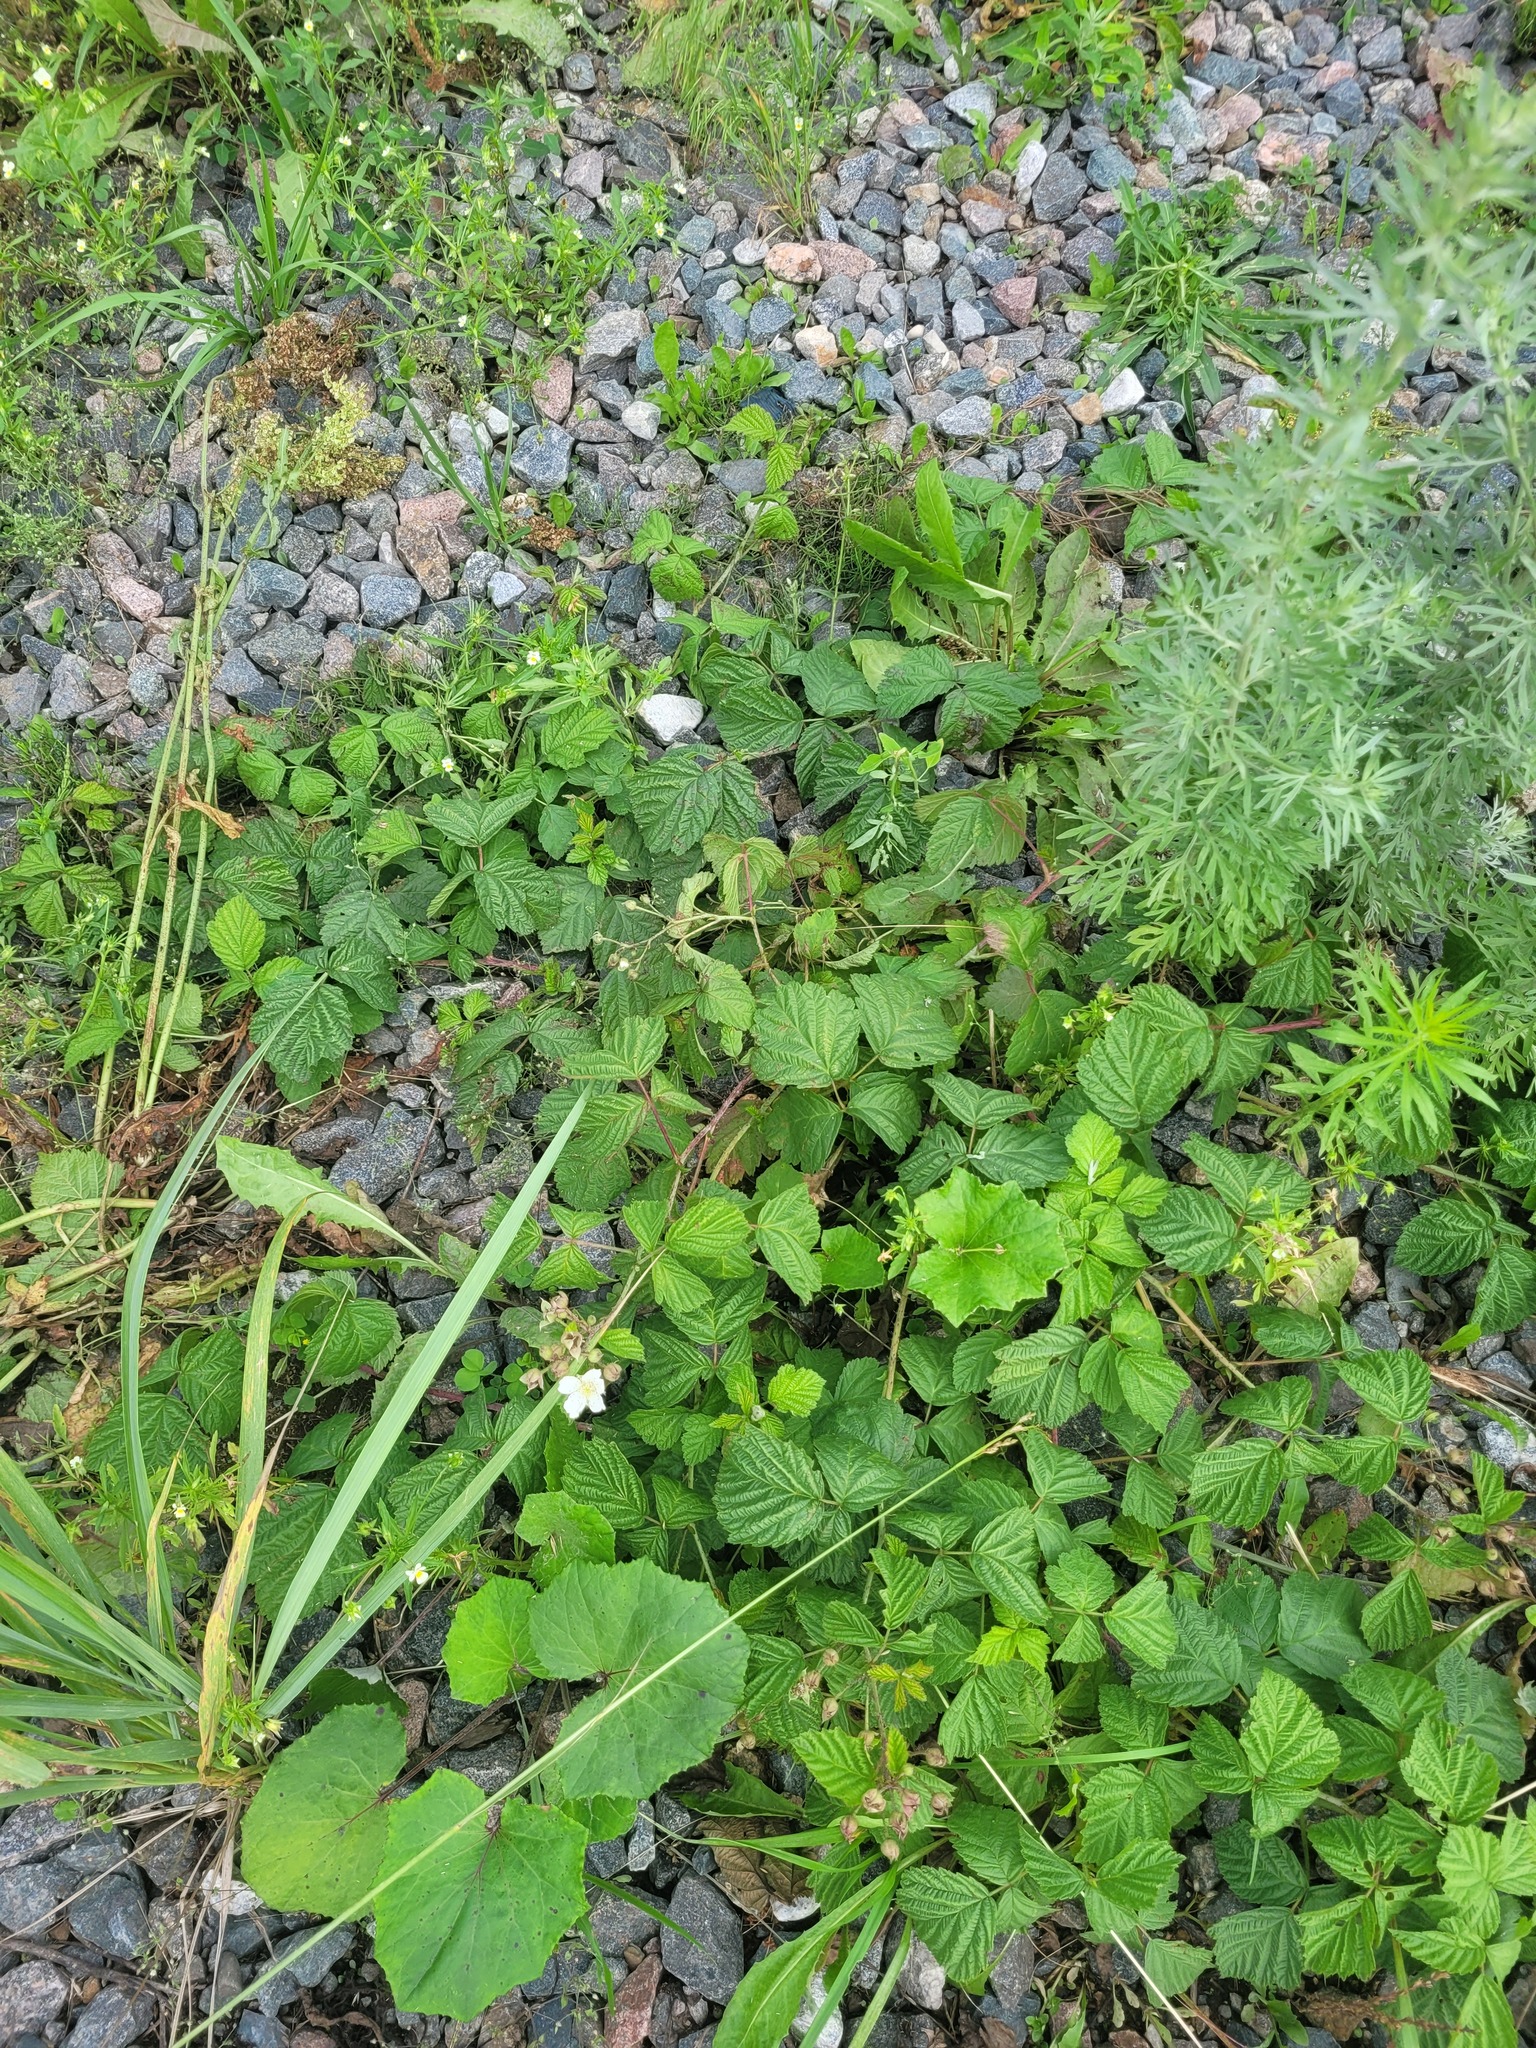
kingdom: Plantae
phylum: Tracheophyta
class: Magnoliopsida
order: Rosales
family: Rosaceae
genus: Rubus
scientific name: Rubus caesius
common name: Dewberry
